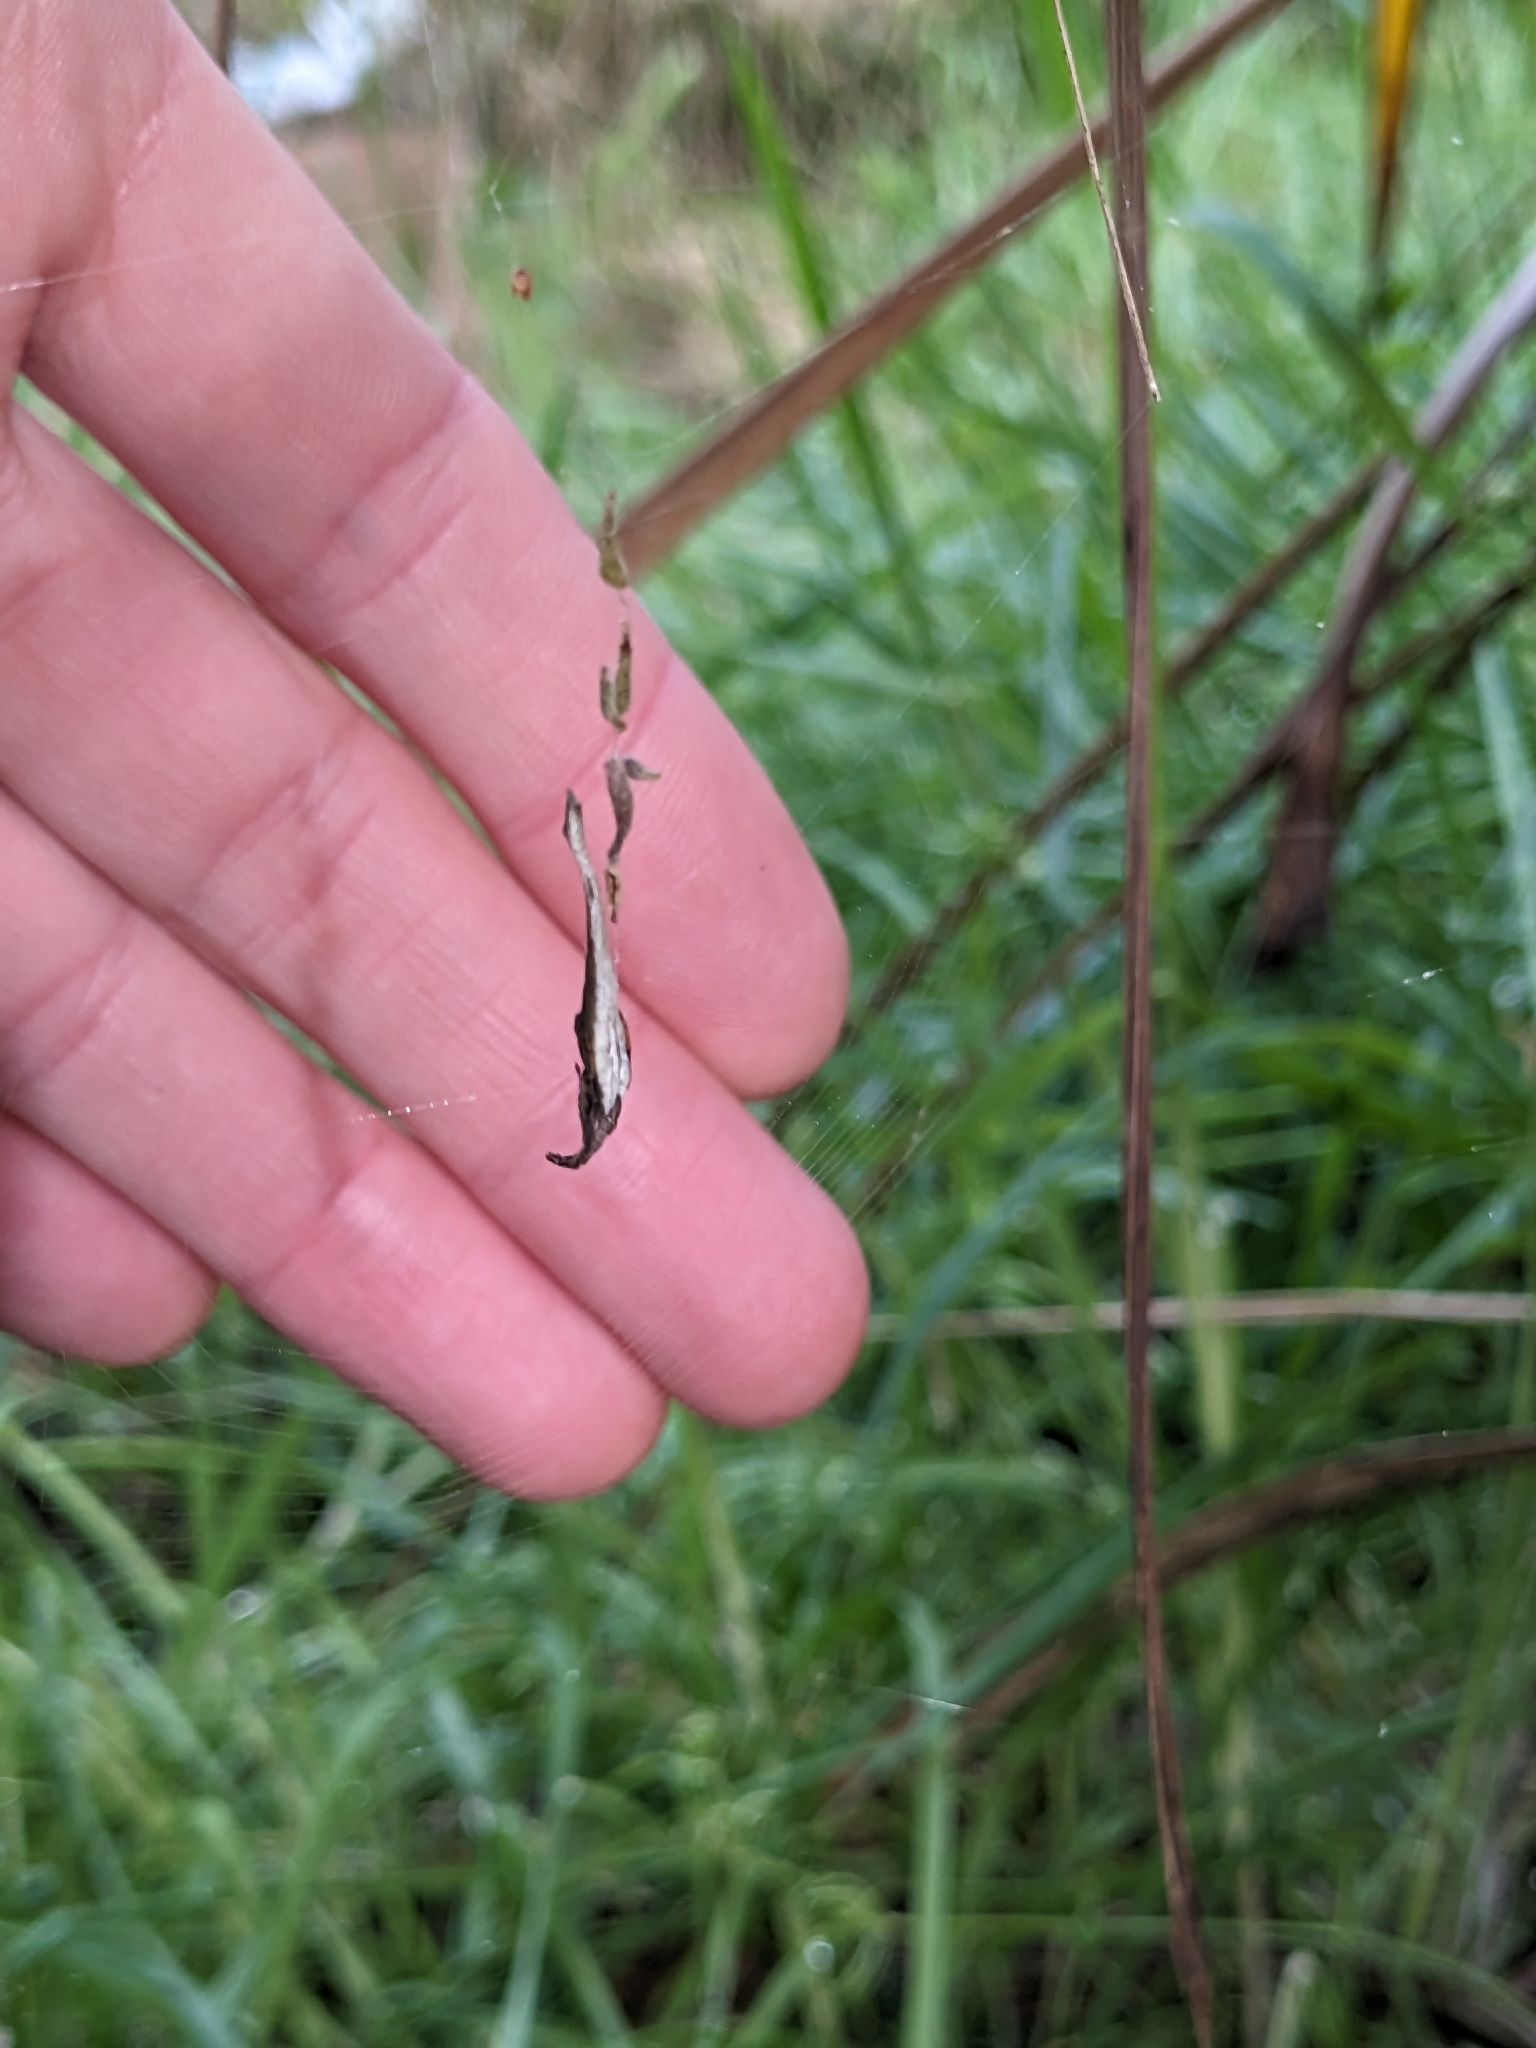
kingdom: Animalia
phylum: Arthropoda
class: Arachnida
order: Araneae
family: Araneidae
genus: Arachnura
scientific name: Arachnura feredayi
